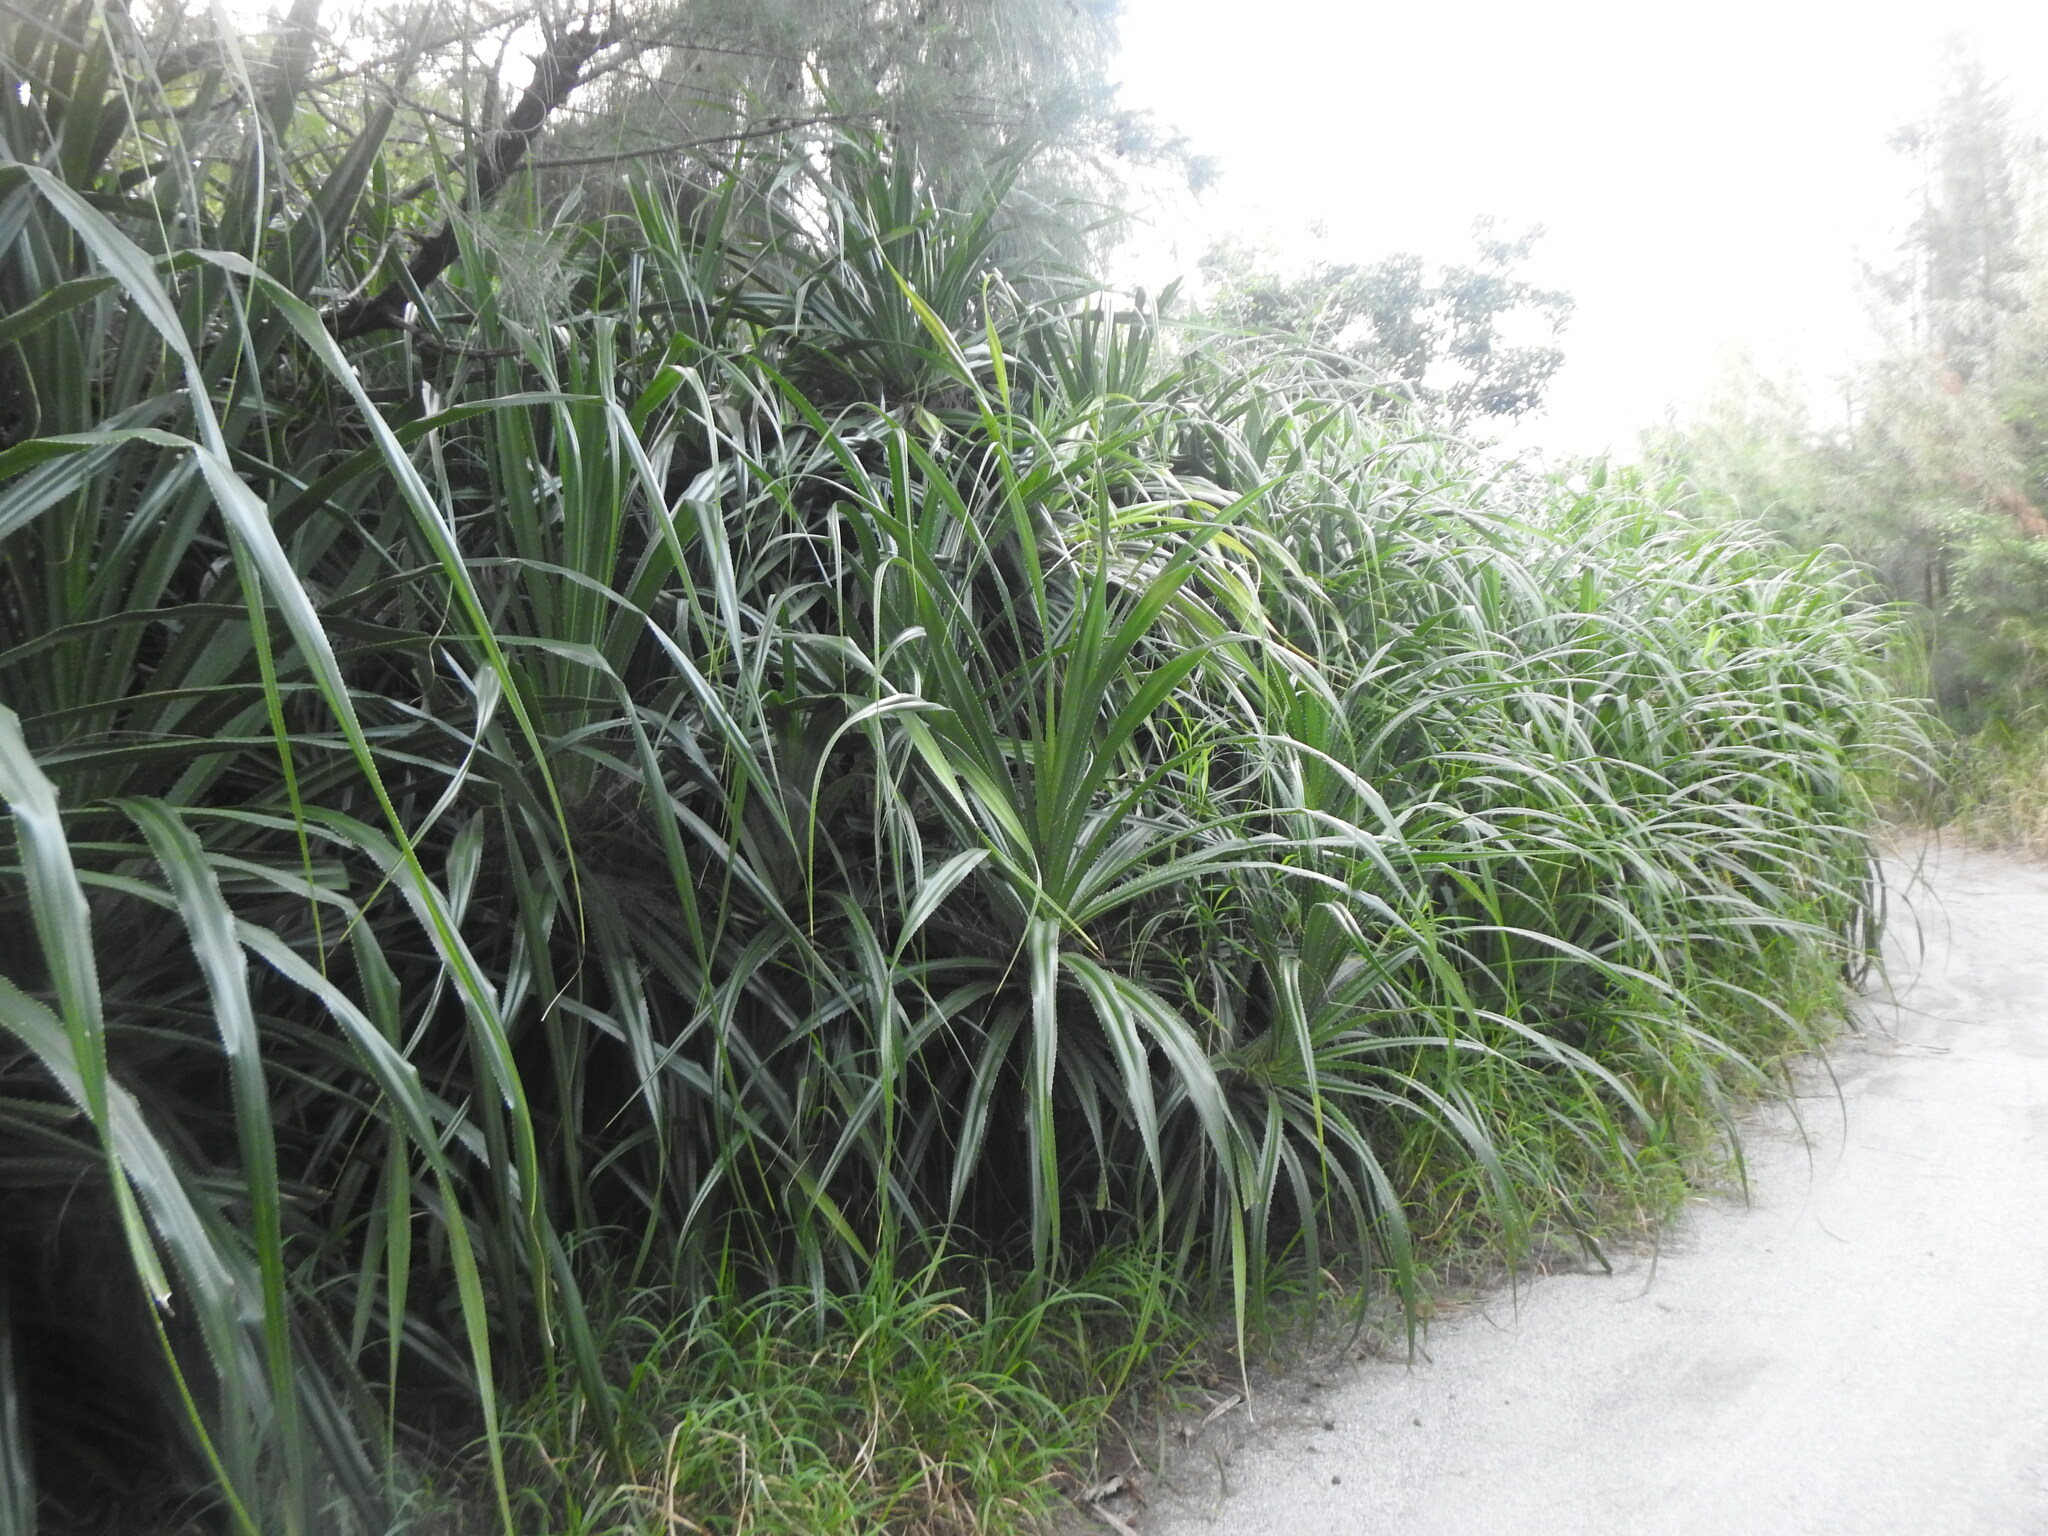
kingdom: Plantae
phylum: Tracheophyta
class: Liliopsida
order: Pandanales
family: Pandanaceae
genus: Pandanus
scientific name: Pandanus odorifer
